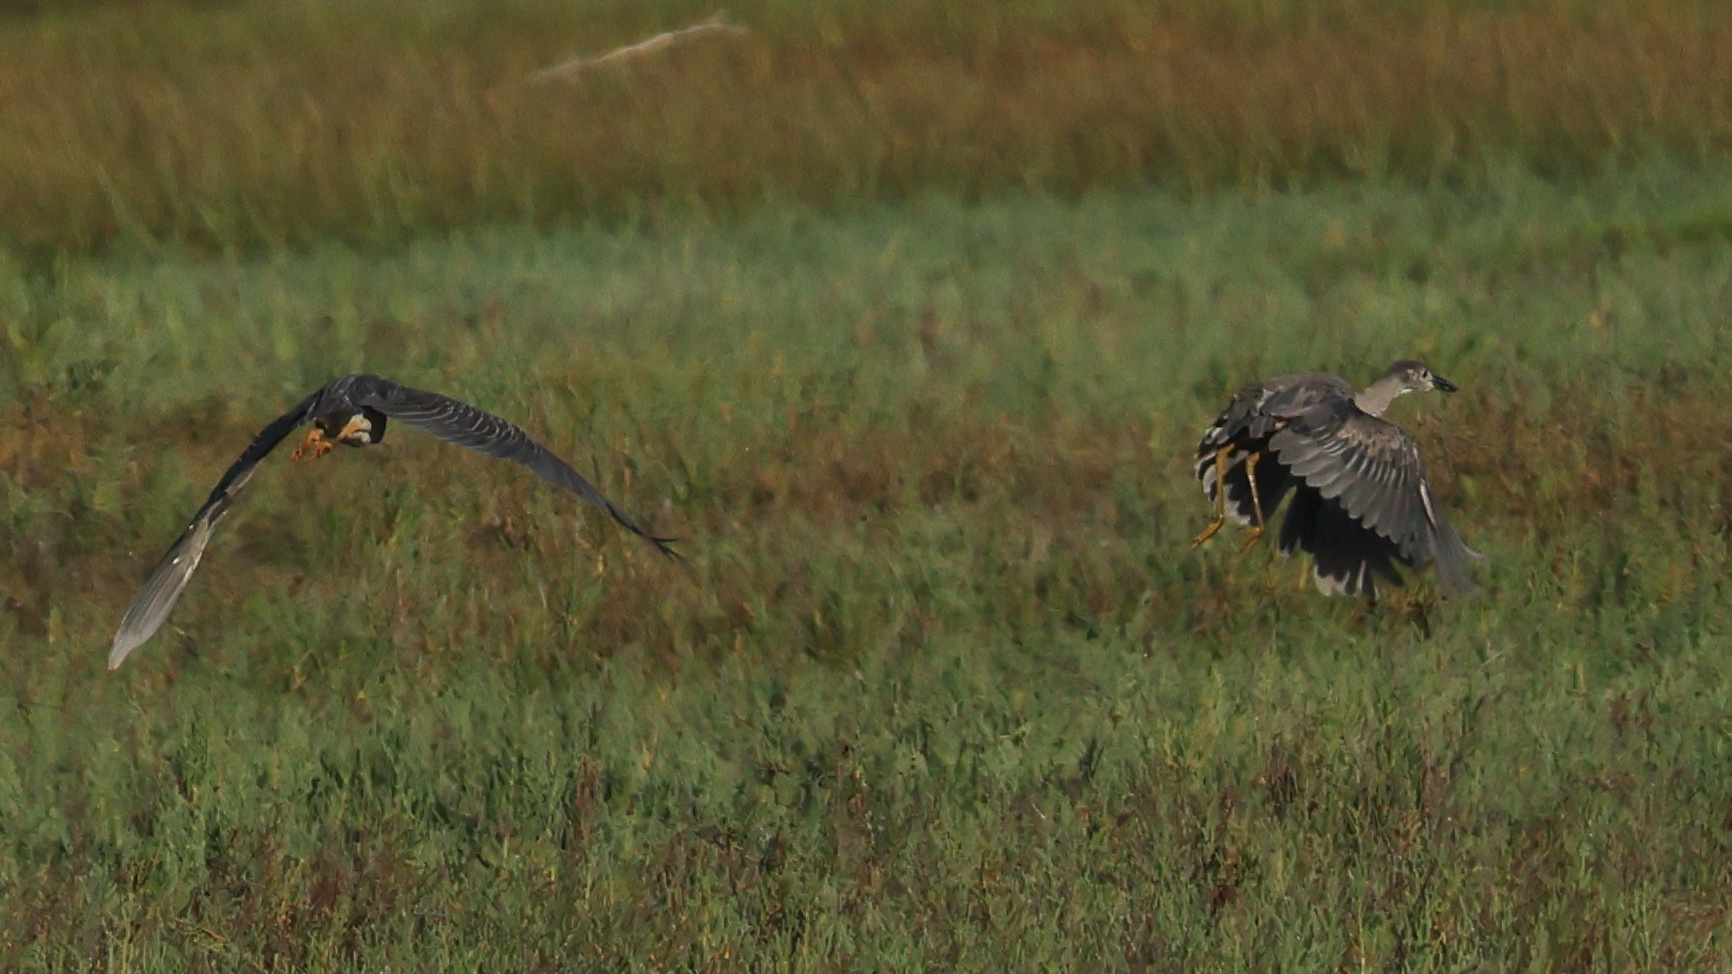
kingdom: Animalia
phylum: Chordata
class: Aves
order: Pelecaniformes
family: Ardeidae
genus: Nyctanassa
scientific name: Nyctanassa violacea
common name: Yellow-crowned night heron
